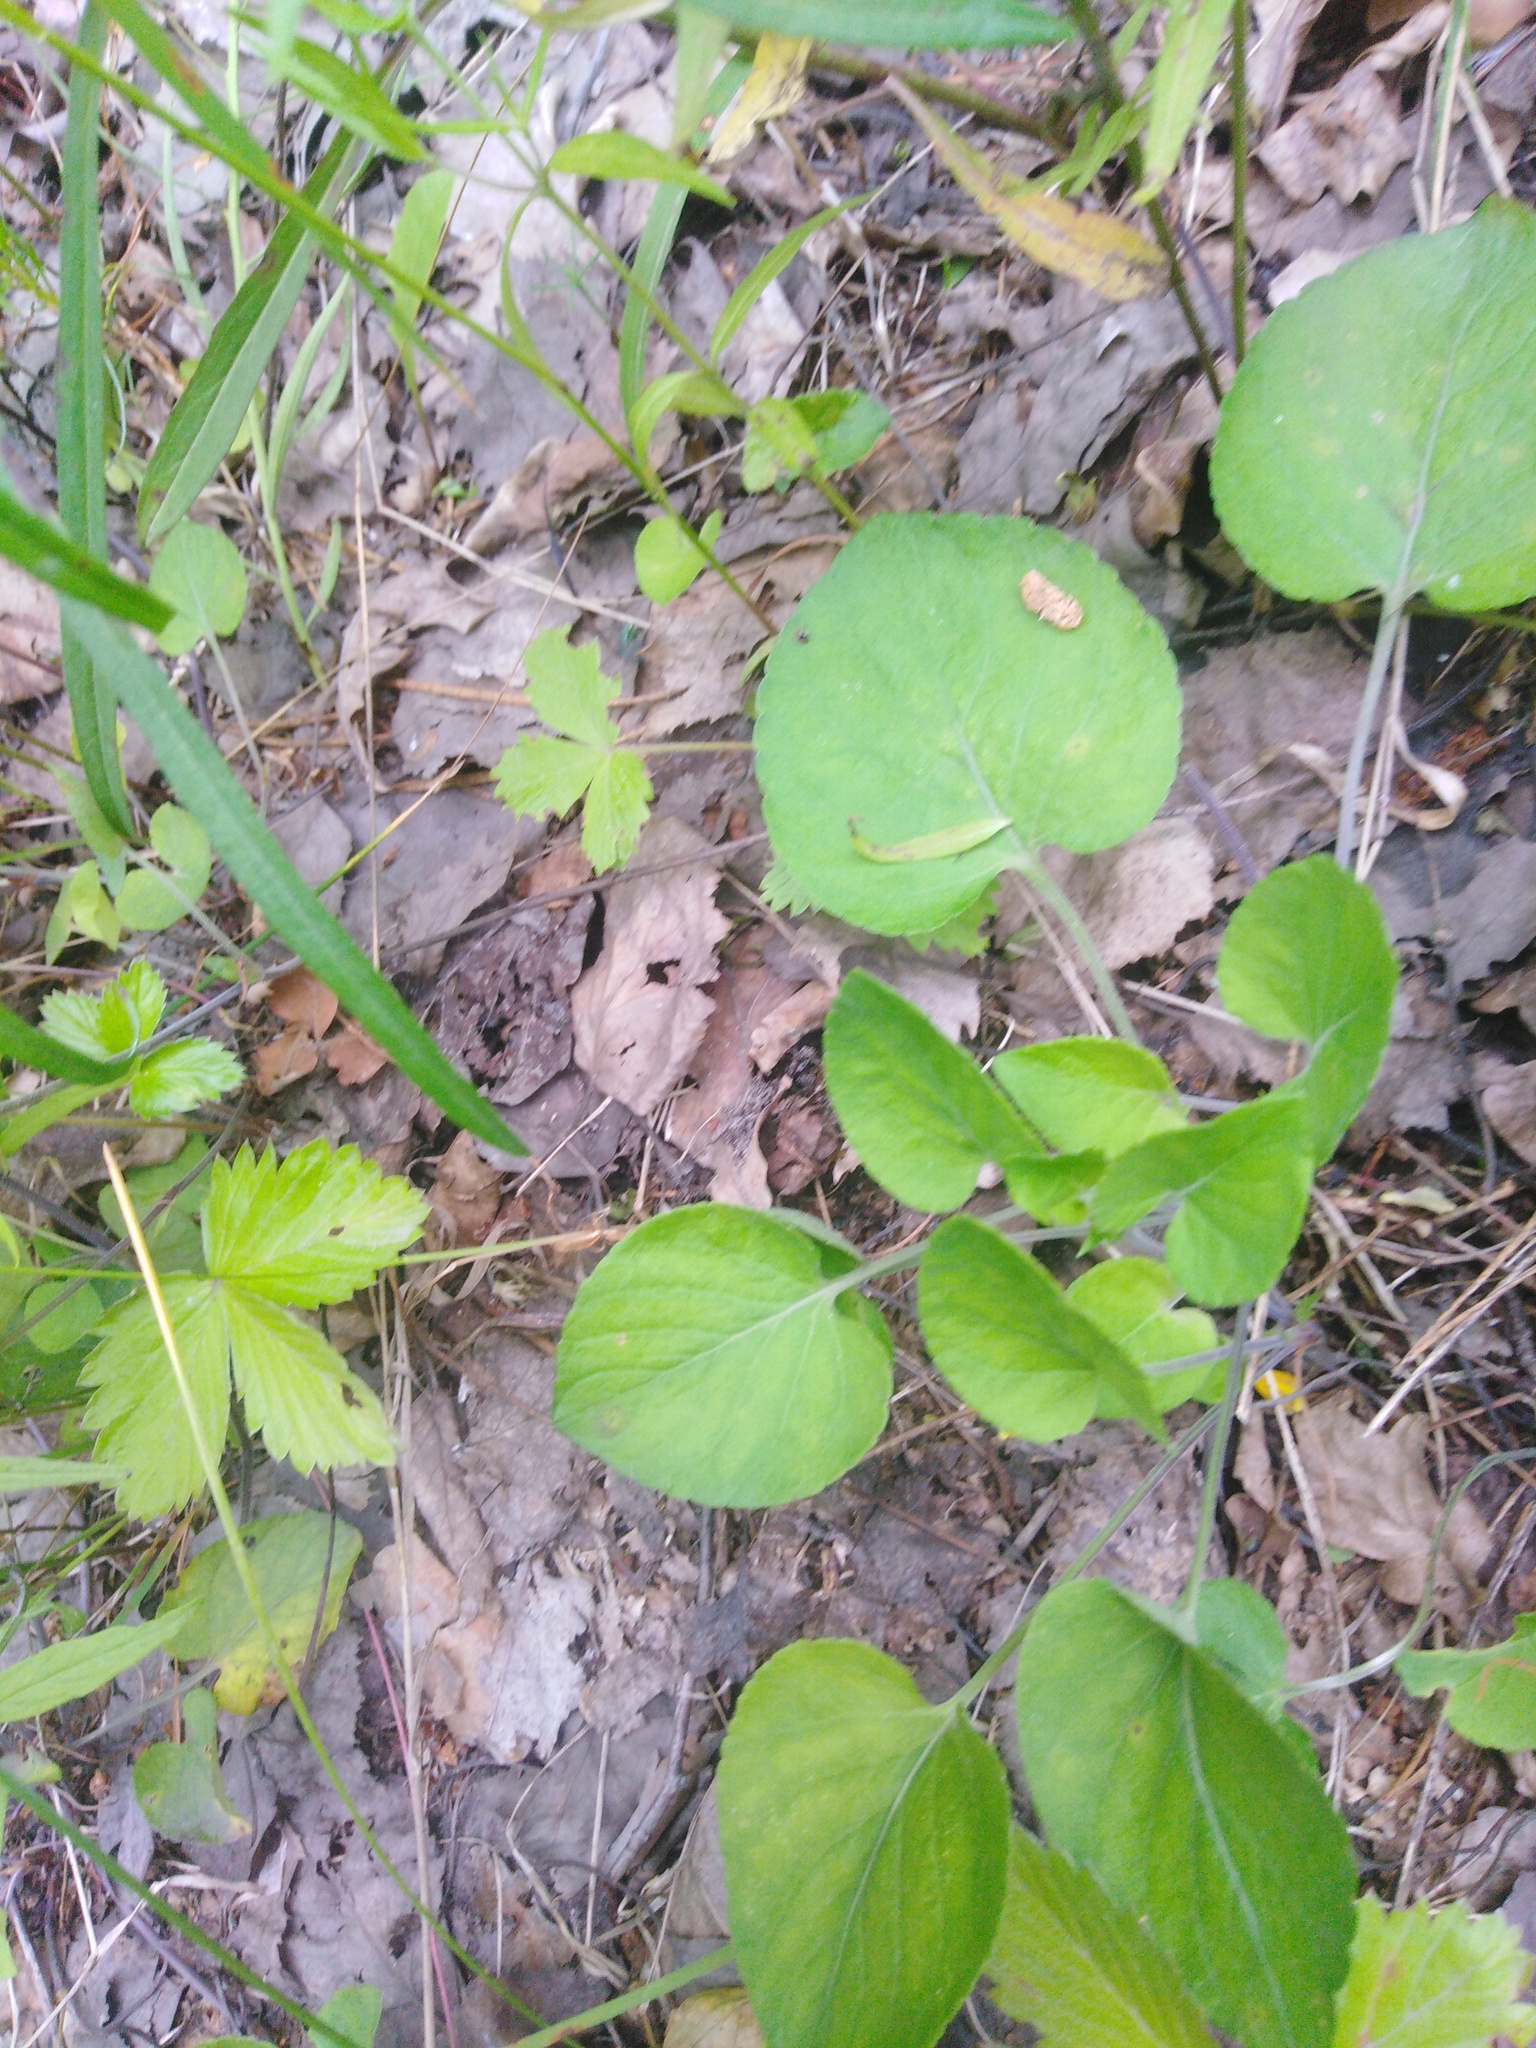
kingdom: Plantae
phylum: Tracheophyta
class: Magnoliopsida
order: Malpighiales
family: Violaceae
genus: Viola
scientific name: Viola rupestris
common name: Teesdale violet
